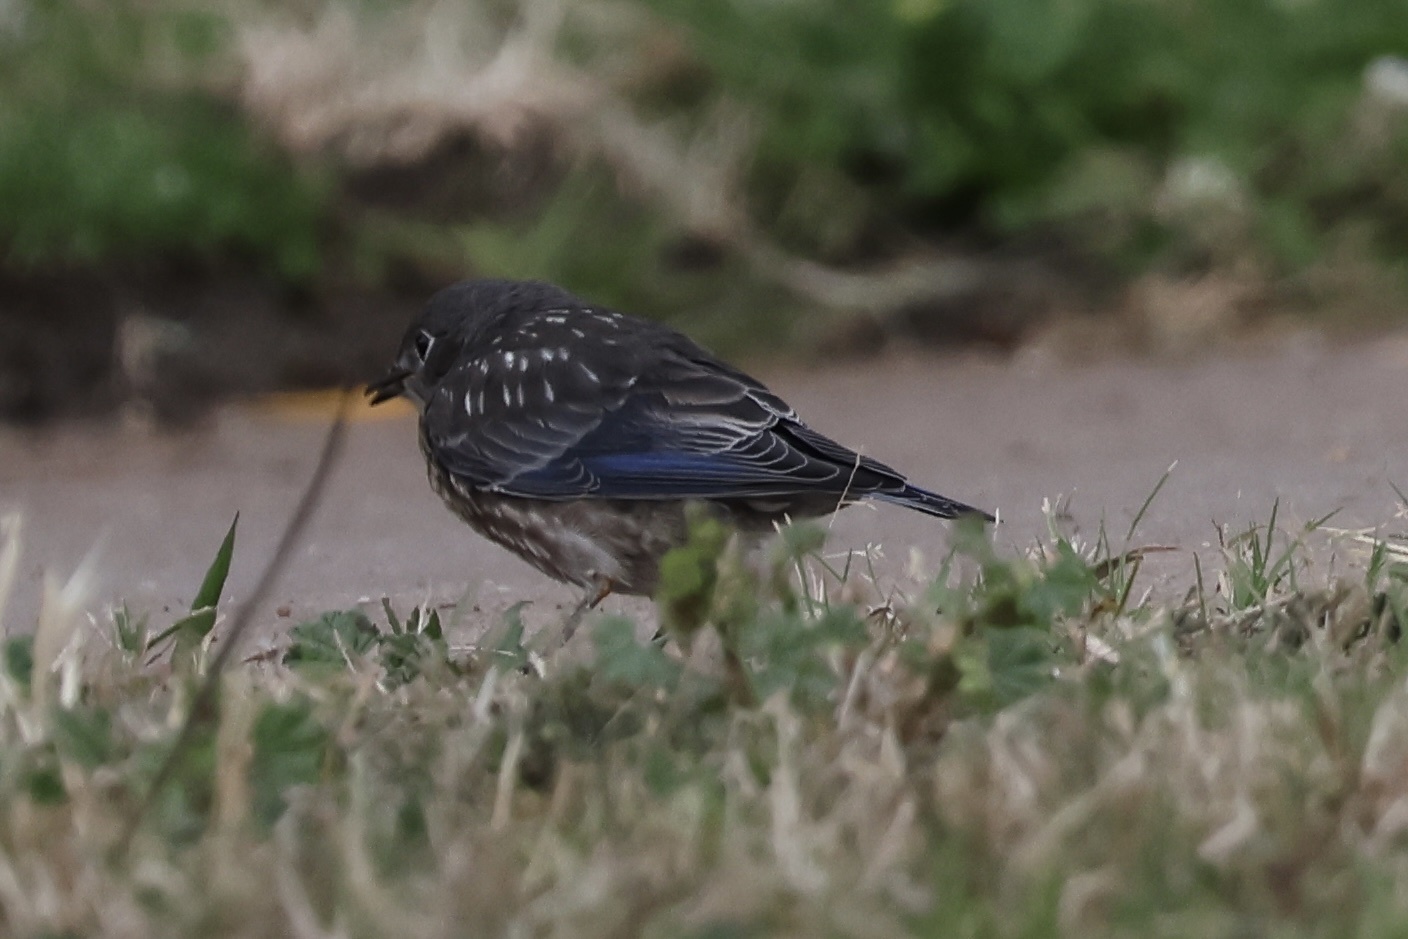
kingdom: Animalia
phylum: Chordata
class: Aves
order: Passeriformes
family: Turdidae
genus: Sialia
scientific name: Sialia mexicana
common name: Western bluebird
